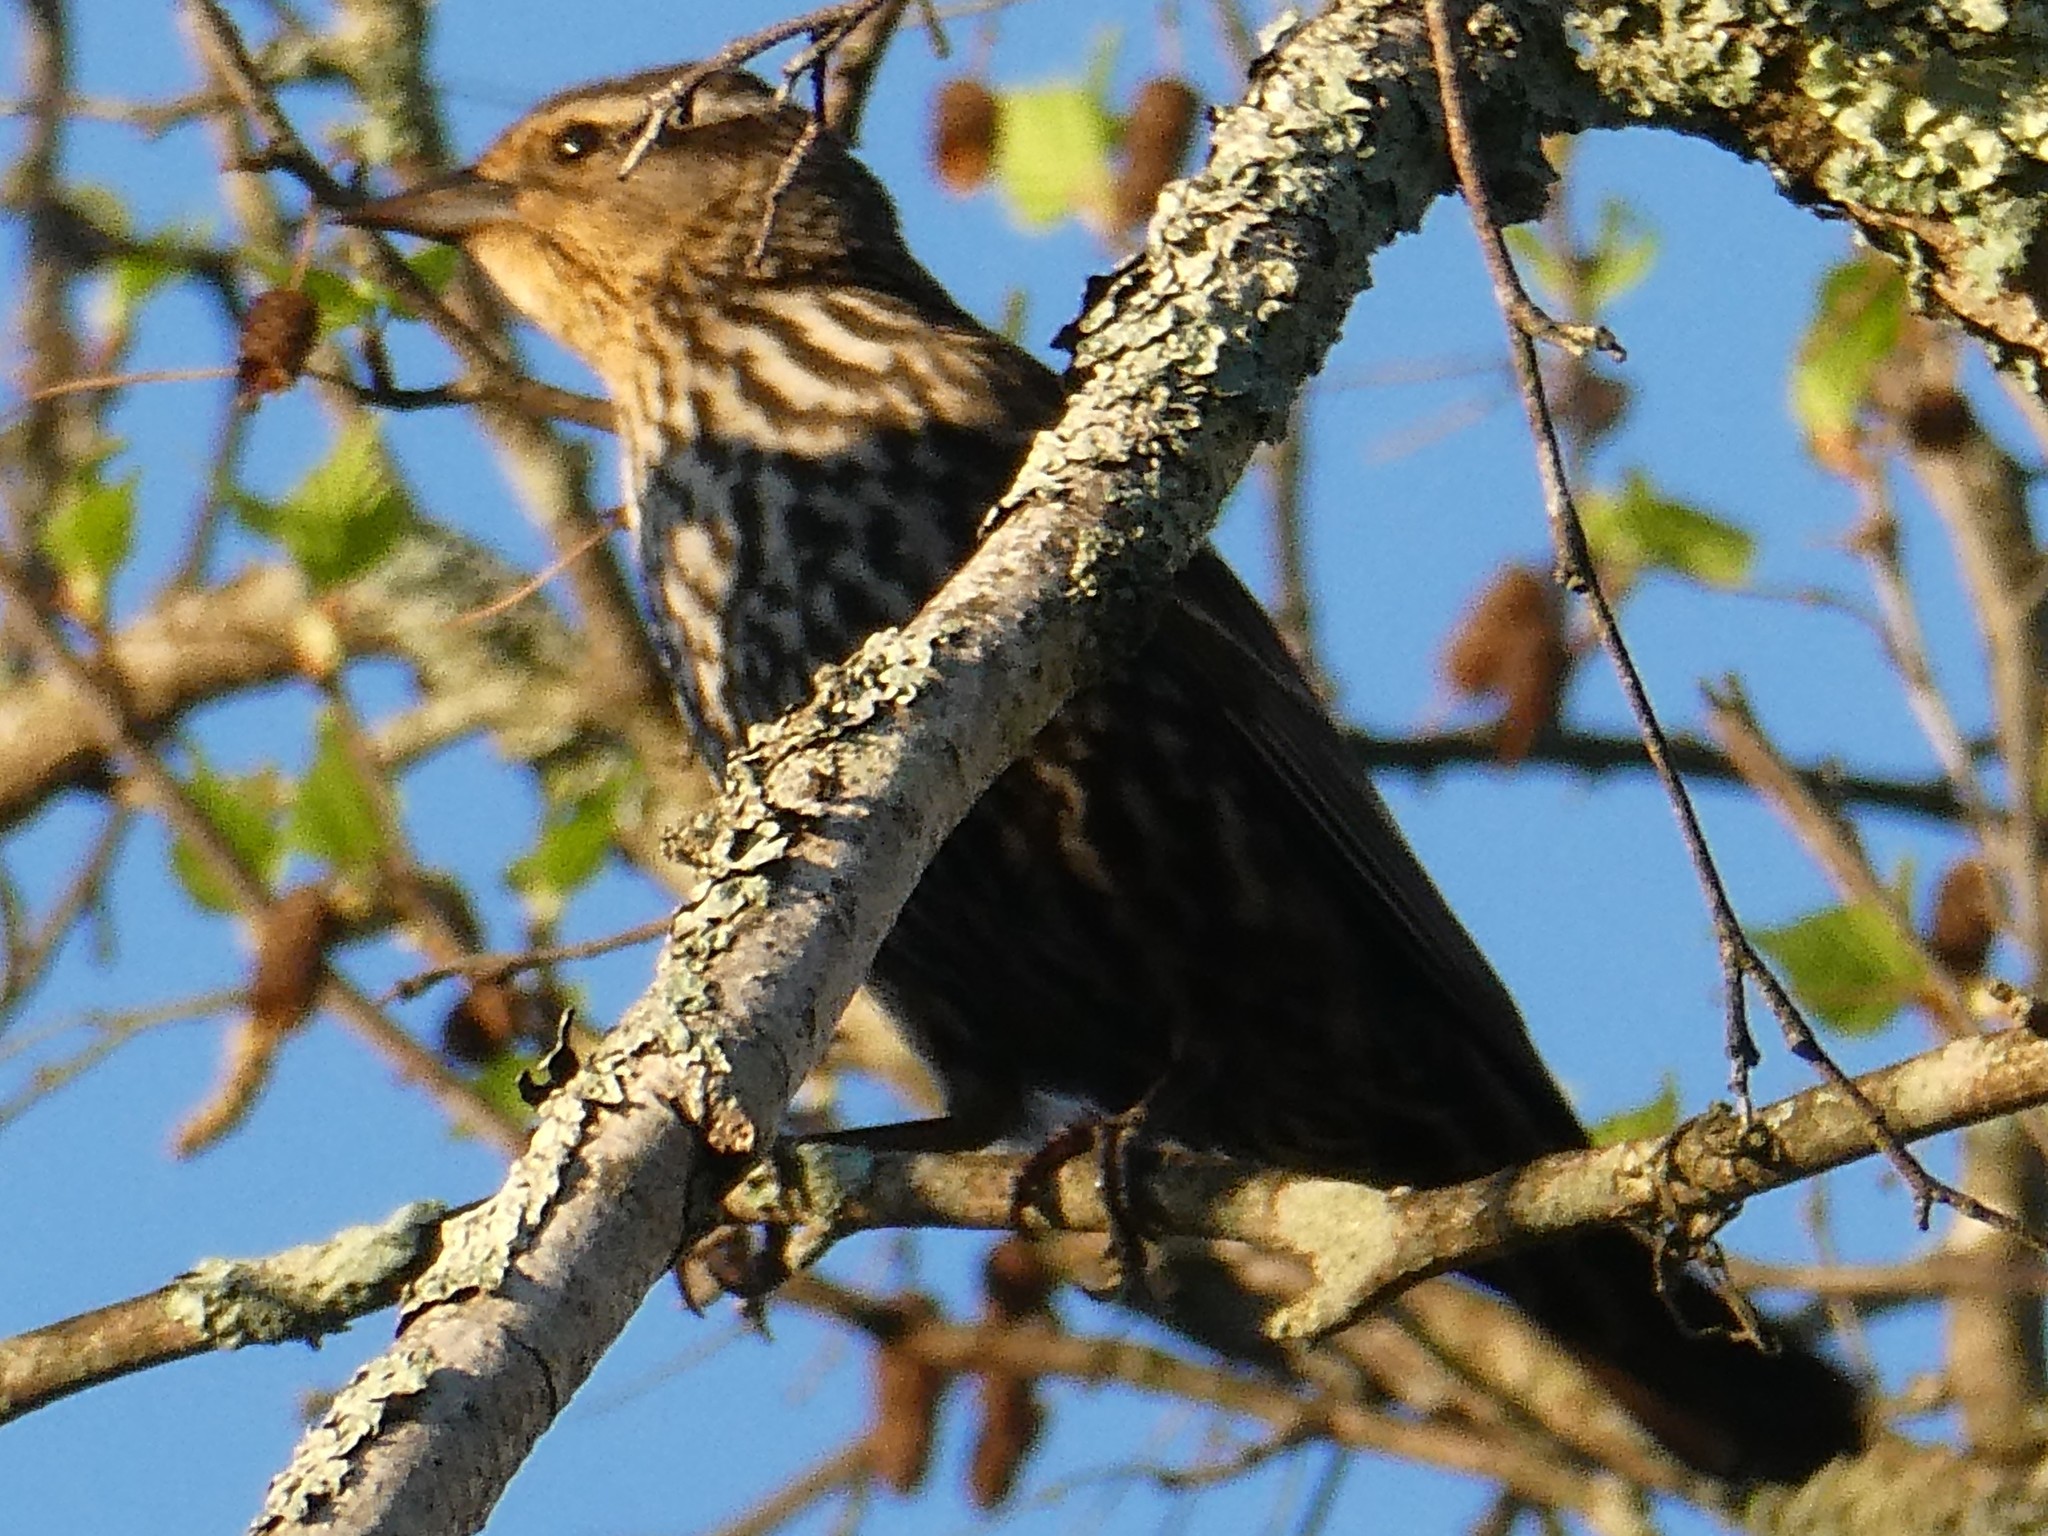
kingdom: Animalia
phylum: Chordata
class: Aves
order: Passeriformes
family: Icteridae
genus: Agelaius
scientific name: Agelaius phoeniceus
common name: Red-winged blackbird
